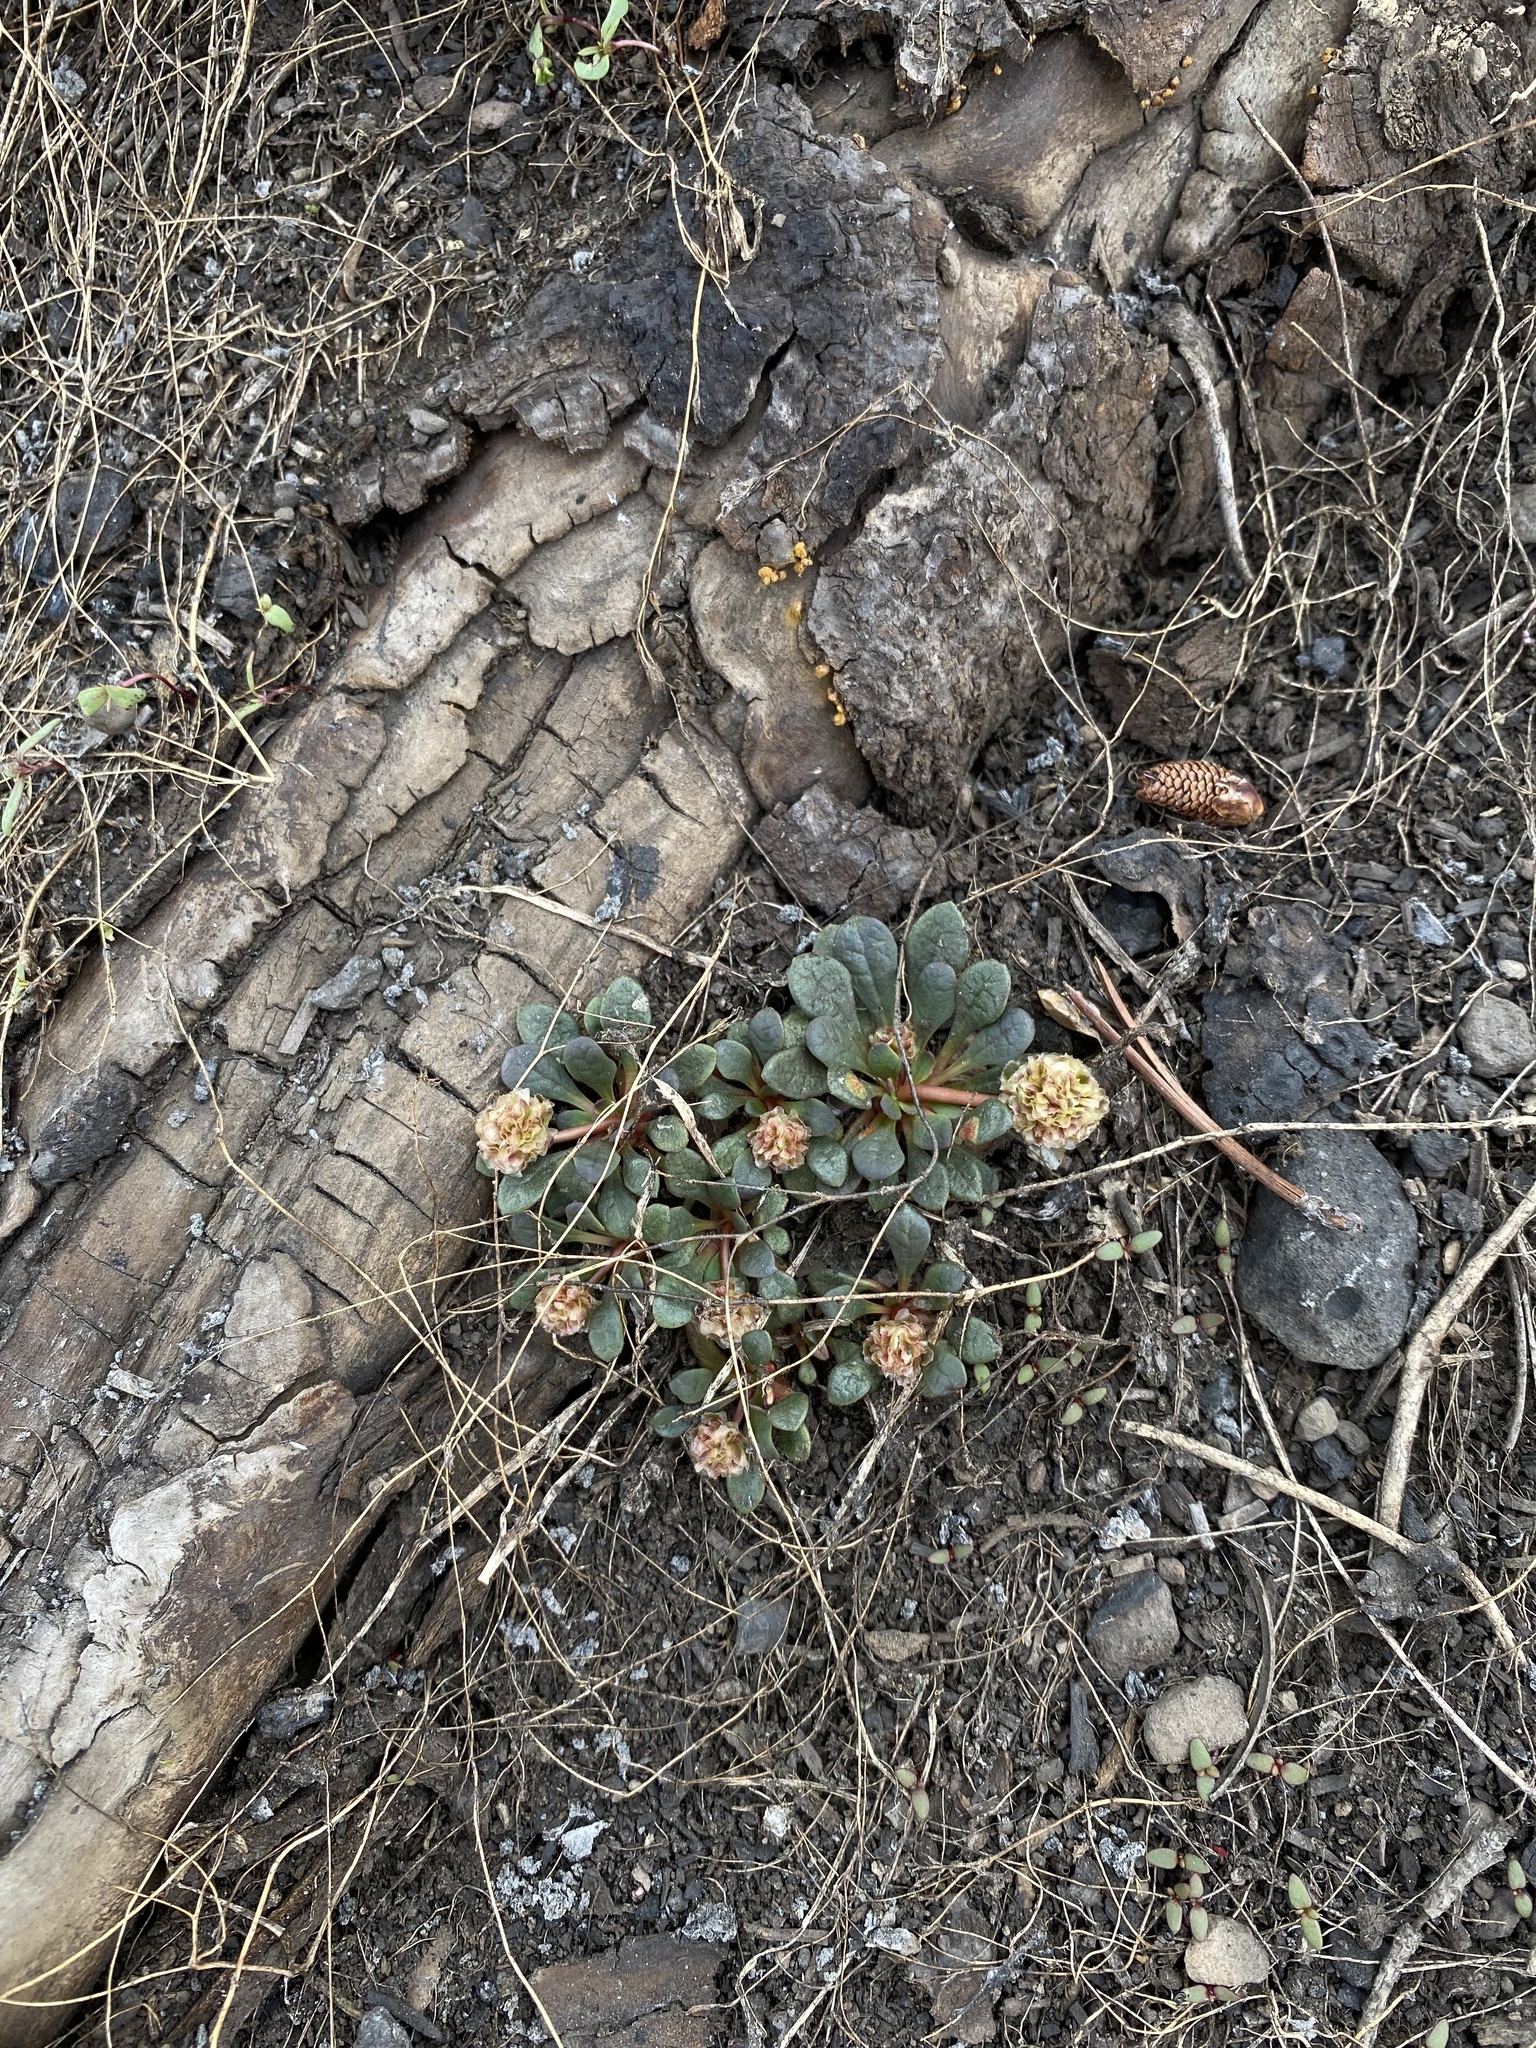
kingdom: Plantae
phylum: Tracheophyta
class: Magnoliopsida
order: Caryophyllales
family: Montiaceae
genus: Calyptridium
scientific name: Calyptridium umbellatum
